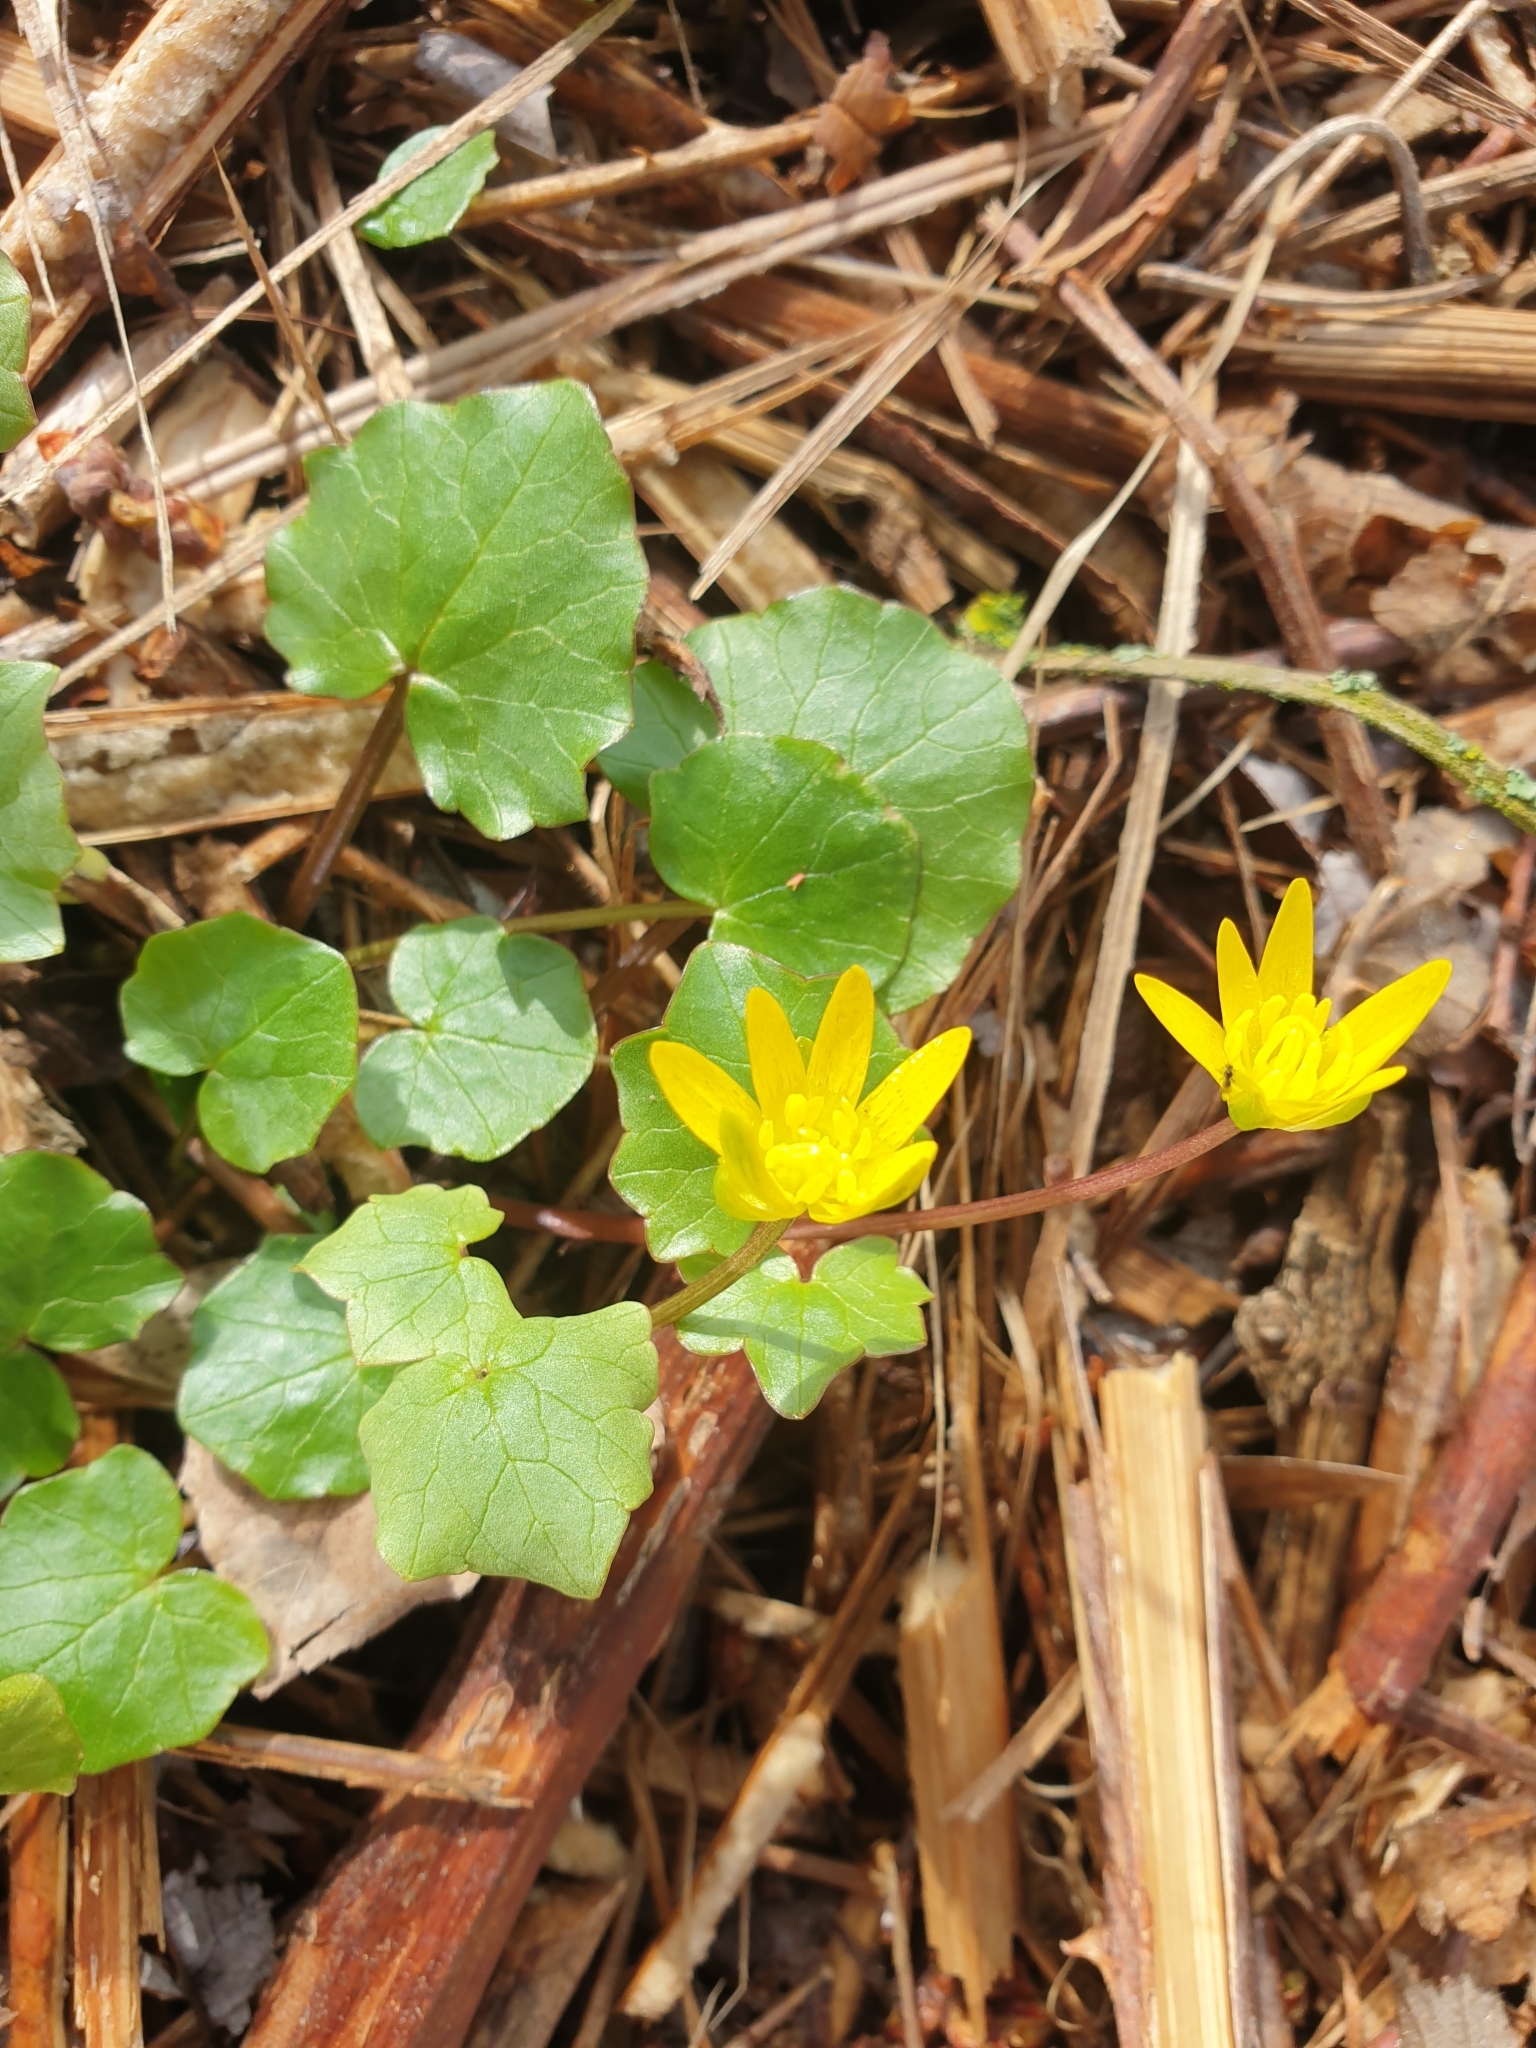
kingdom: Plantae
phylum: Tracheophyta
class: Magnoliopsida
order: Ranunculales
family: Ranunculaceae
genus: Ficaria
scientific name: Ficaria verna
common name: Lesser celandine
